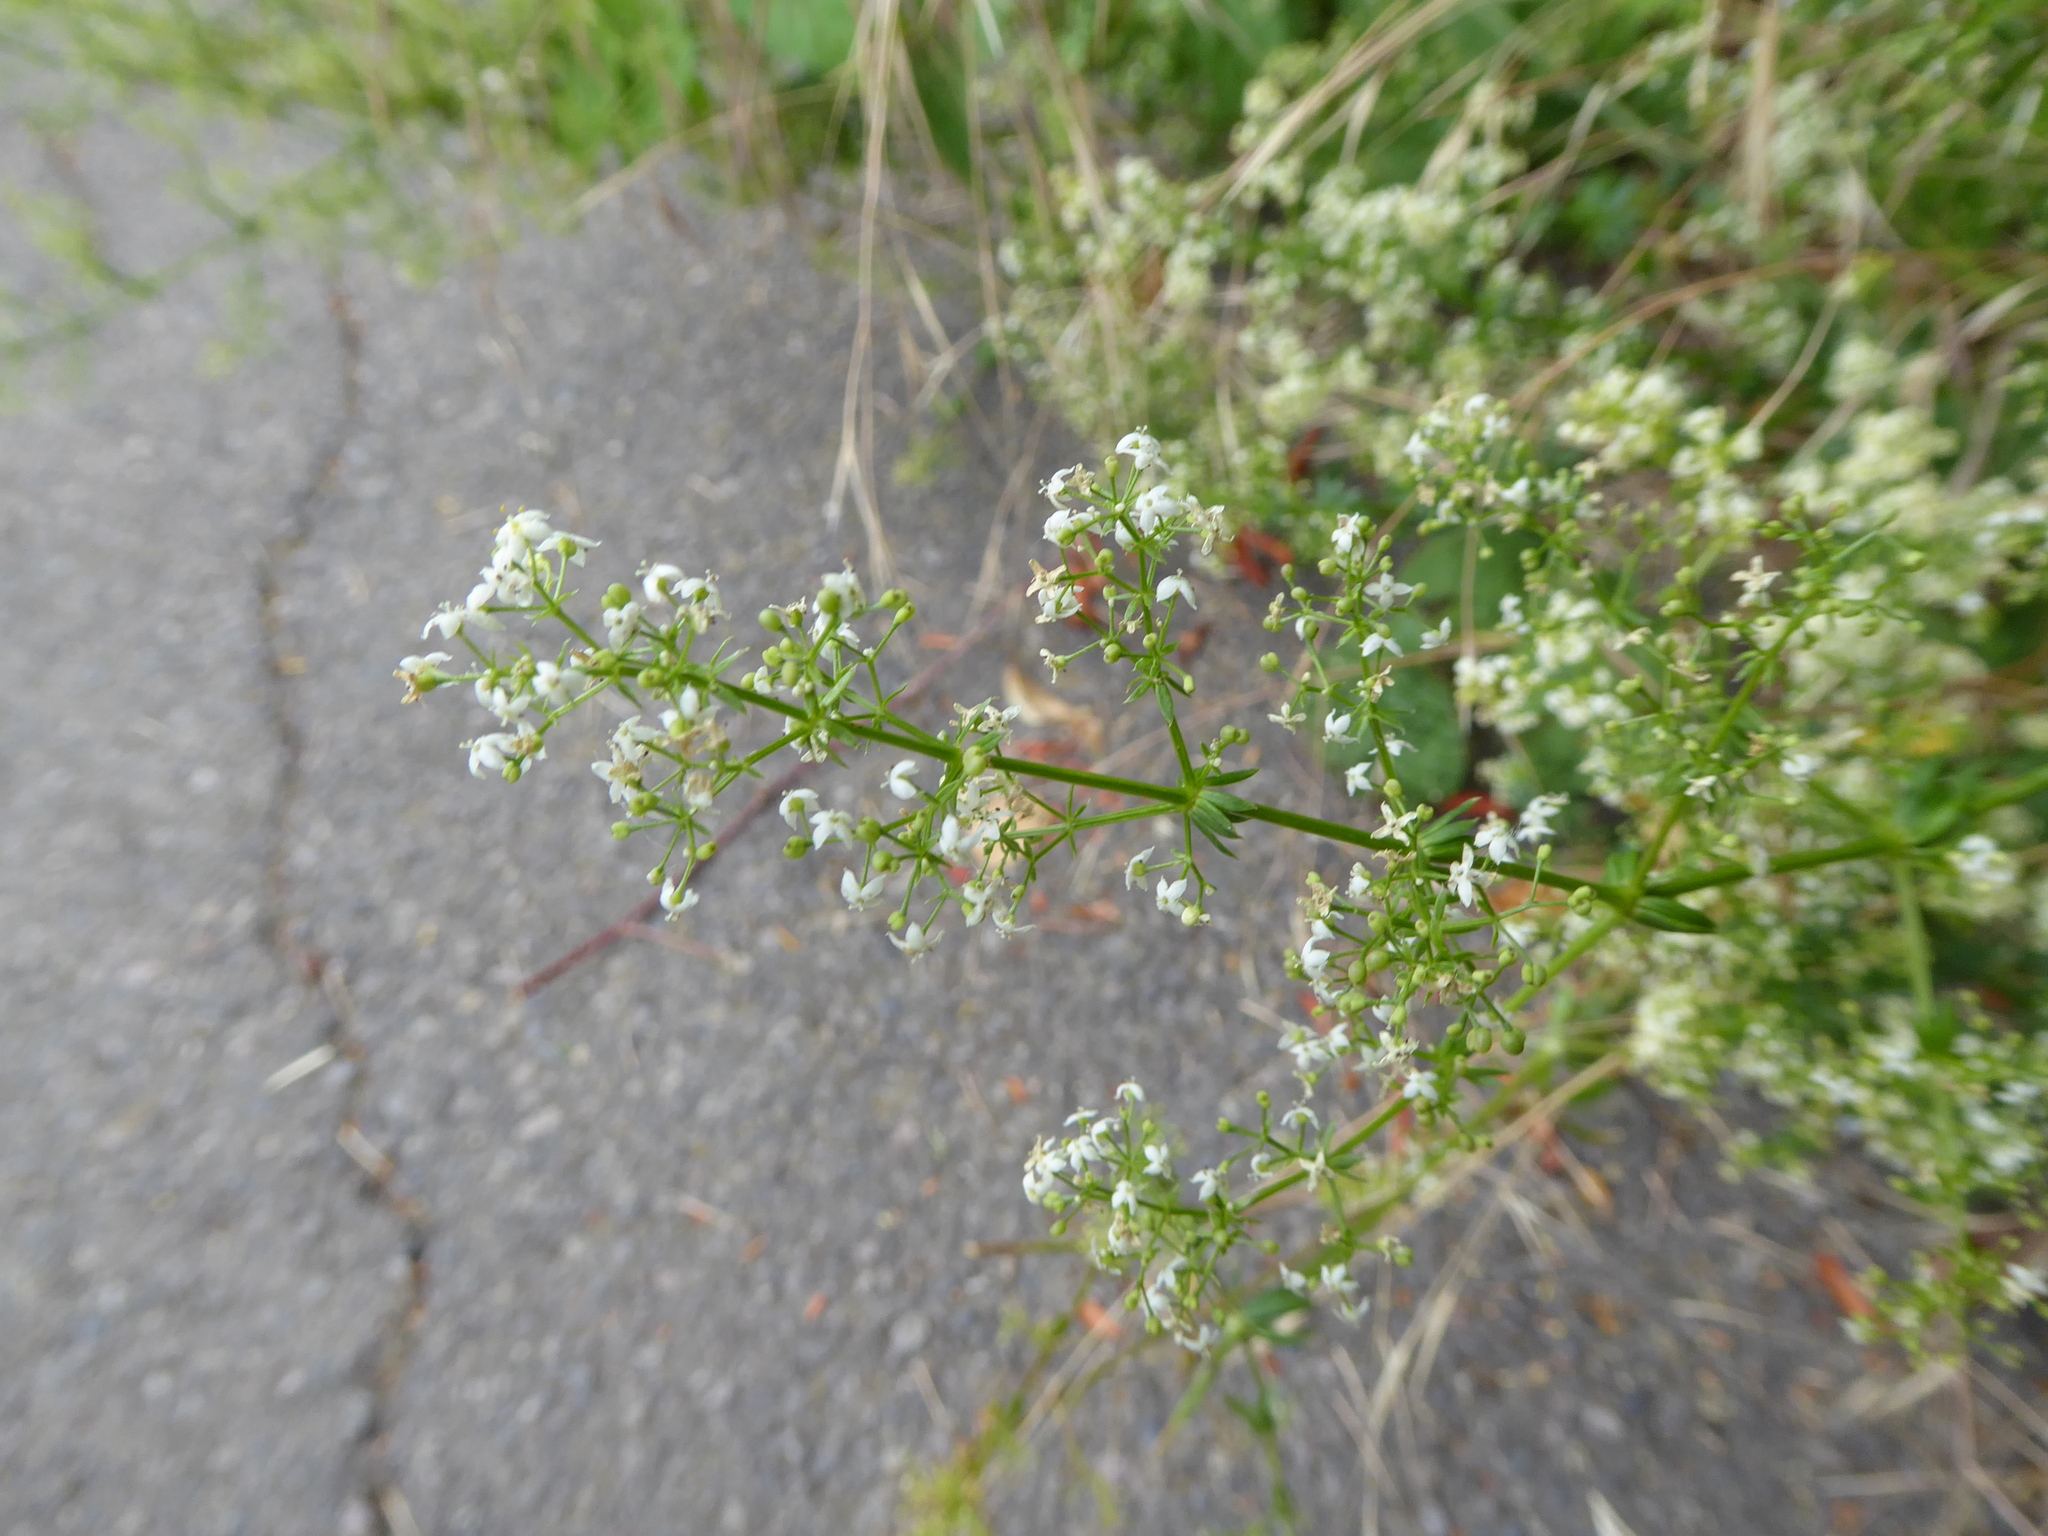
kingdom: Plantae
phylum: Tracheophyta
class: Magnoliopsida
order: Gentianales
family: Rubiaceae
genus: Galium
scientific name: Galium album
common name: White bedstraw
